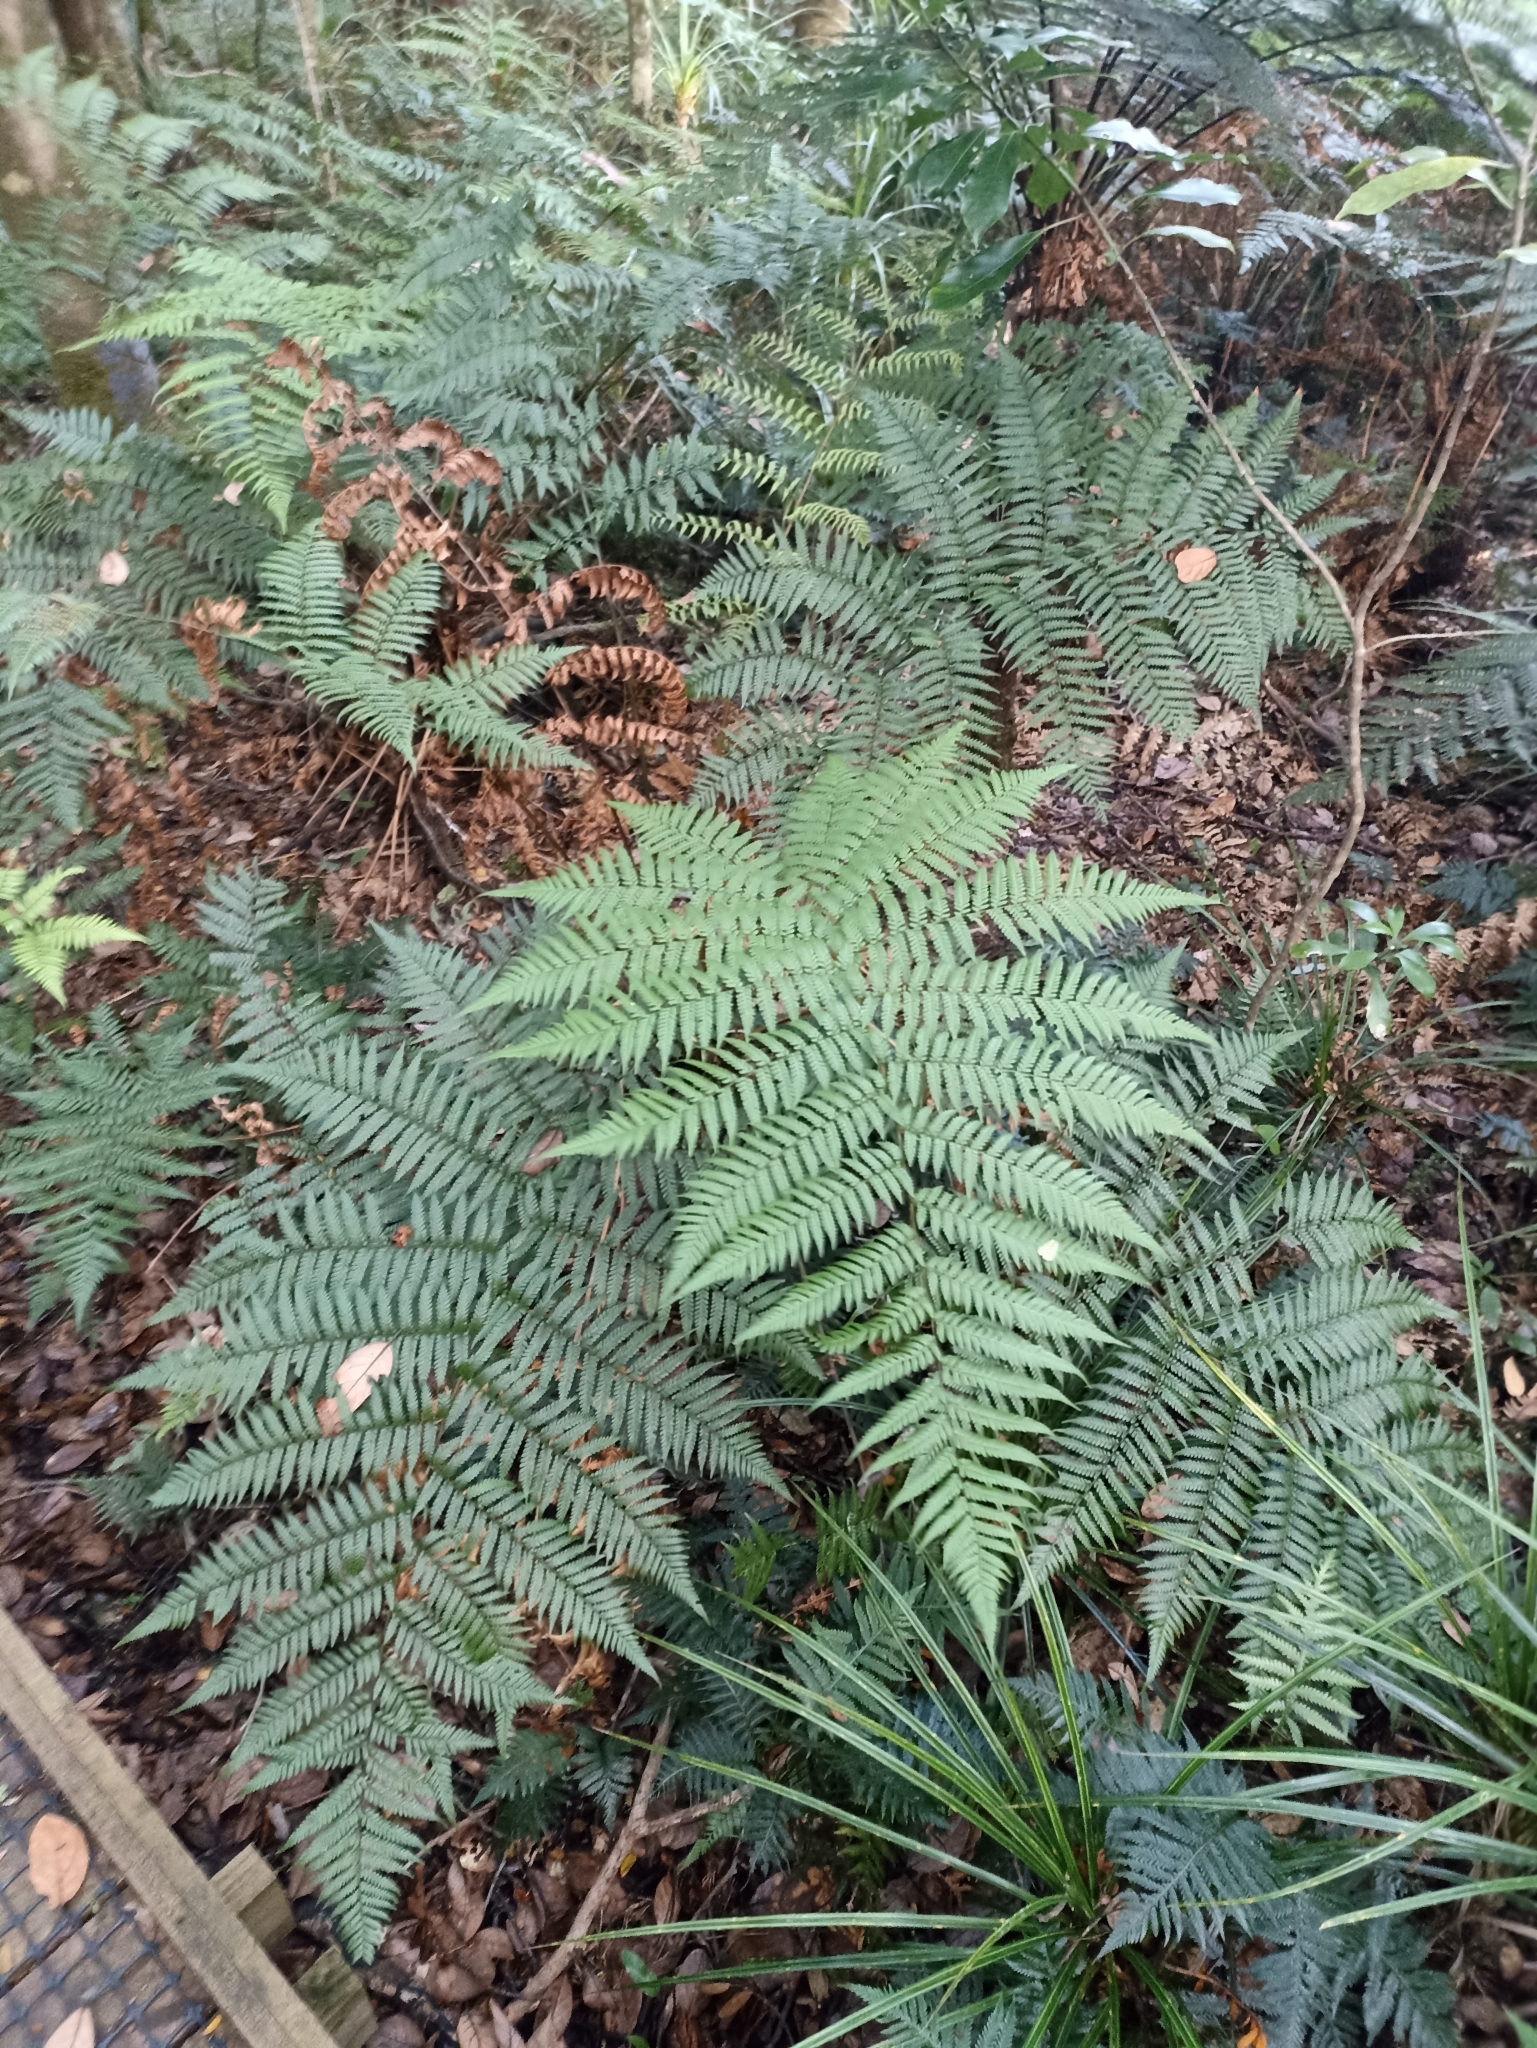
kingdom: Plantae
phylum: Tracheophyta
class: Polypodiopsida
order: Cyatheales
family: Dicksoniaceae
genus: Dicksonia
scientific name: Dicksonia lanata
